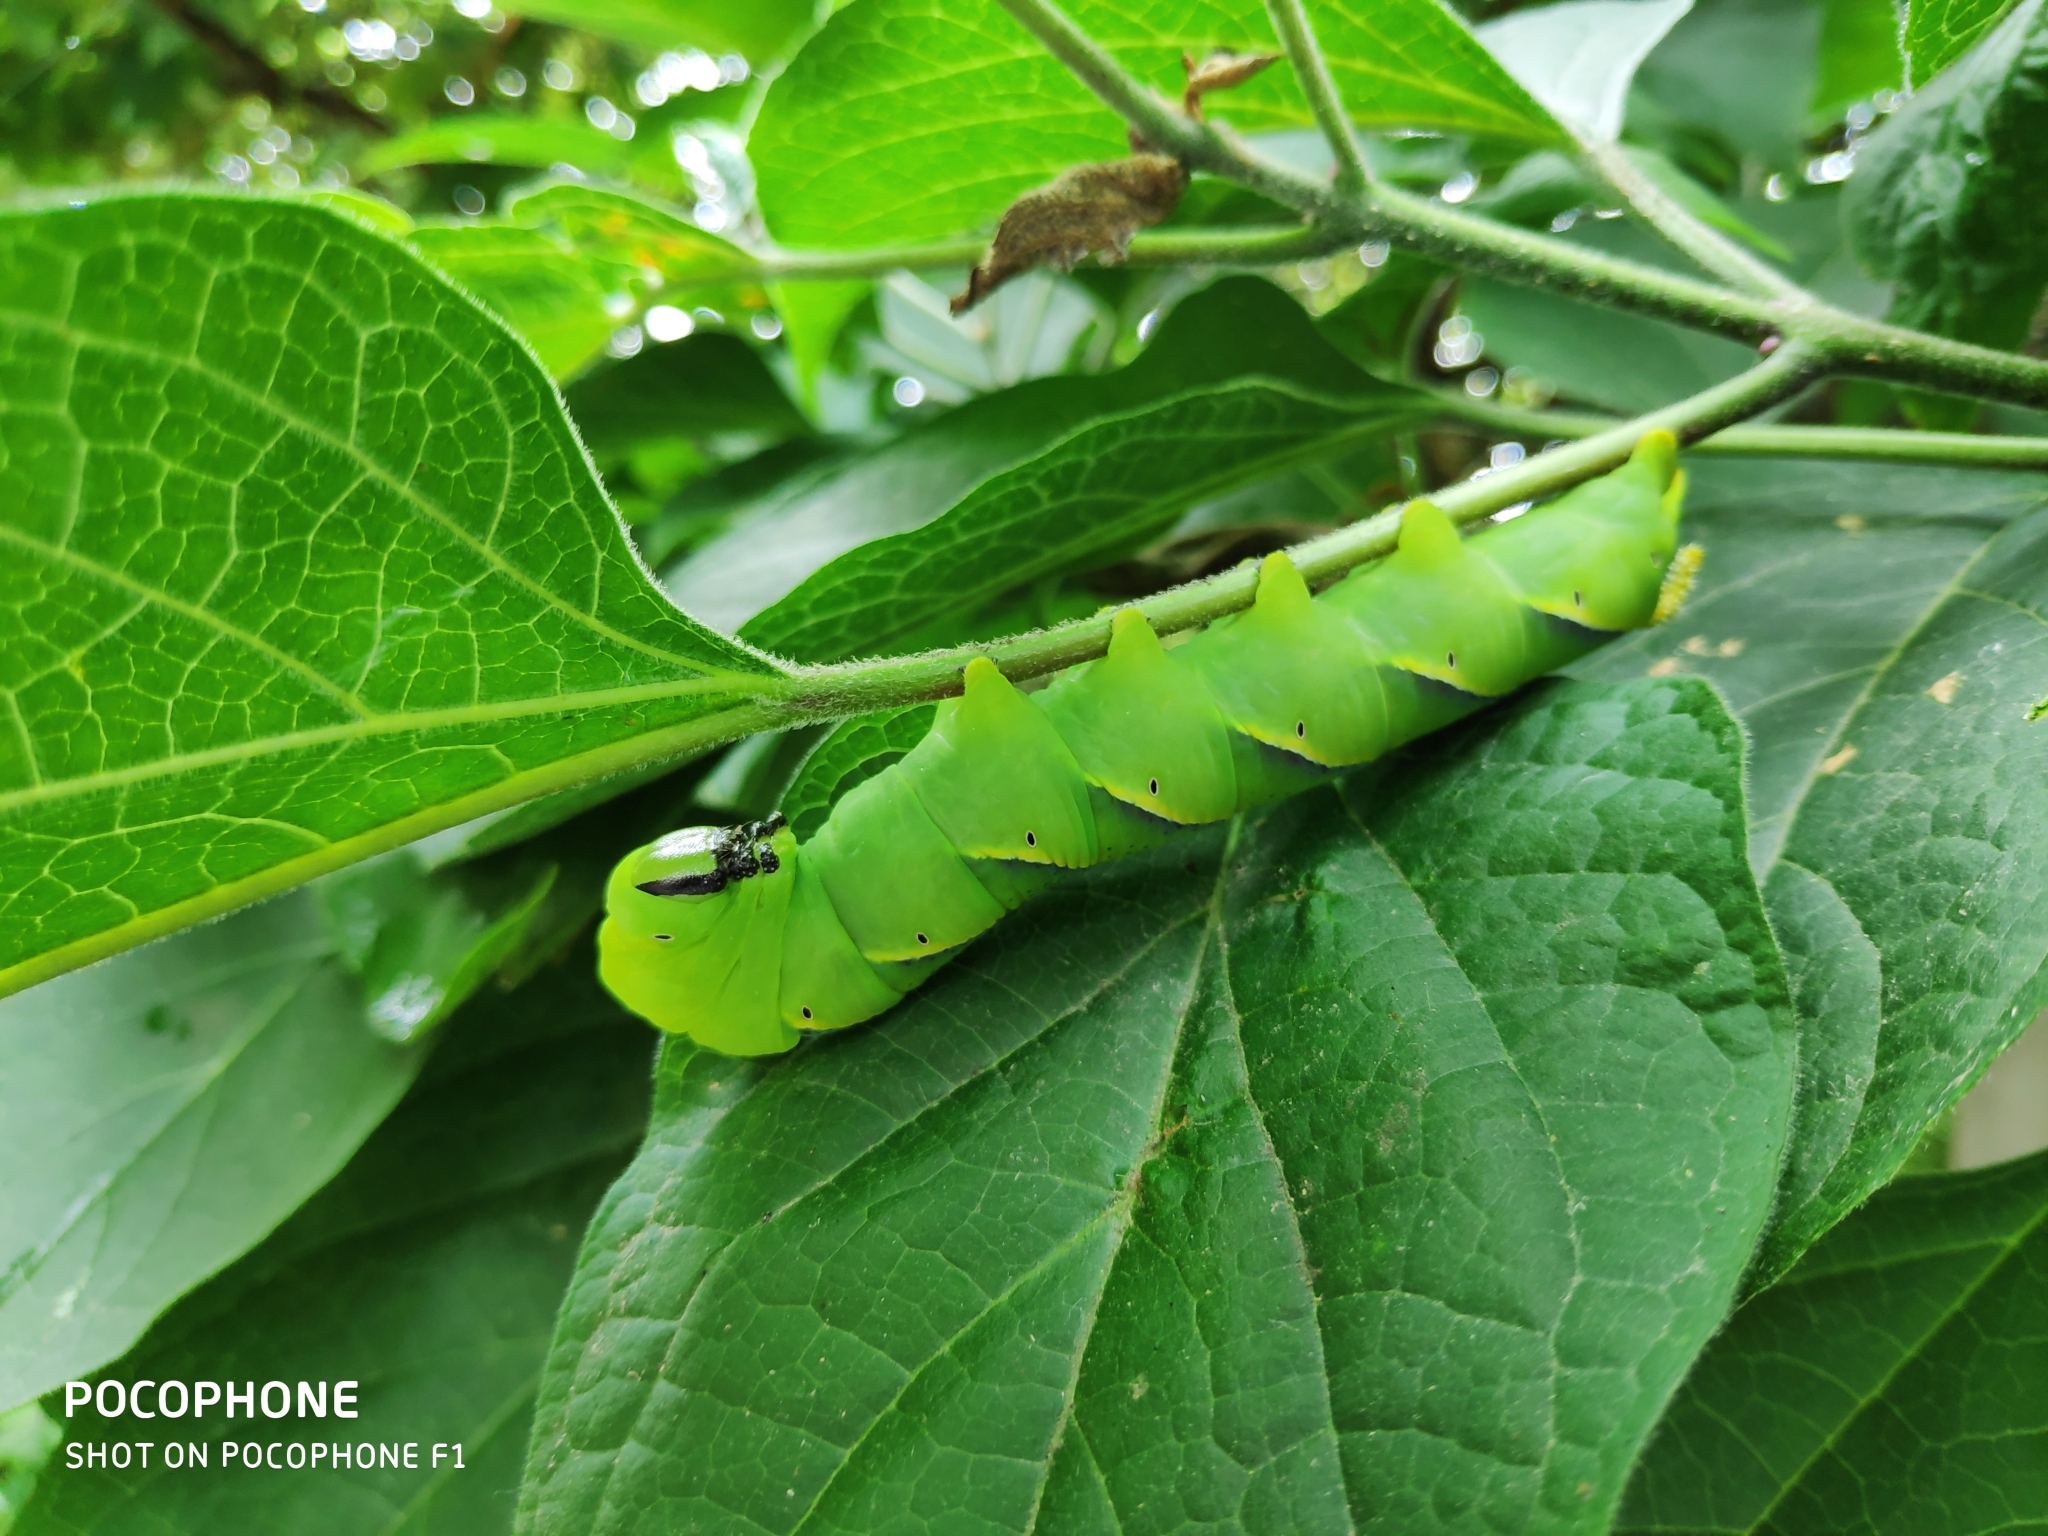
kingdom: Animalia
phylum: Arthropoda
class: Insecta
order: Lepidoptera
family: Sphingidae
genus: Acherontia
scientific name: Acherontia atropos
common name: Death's-head hawk moth
